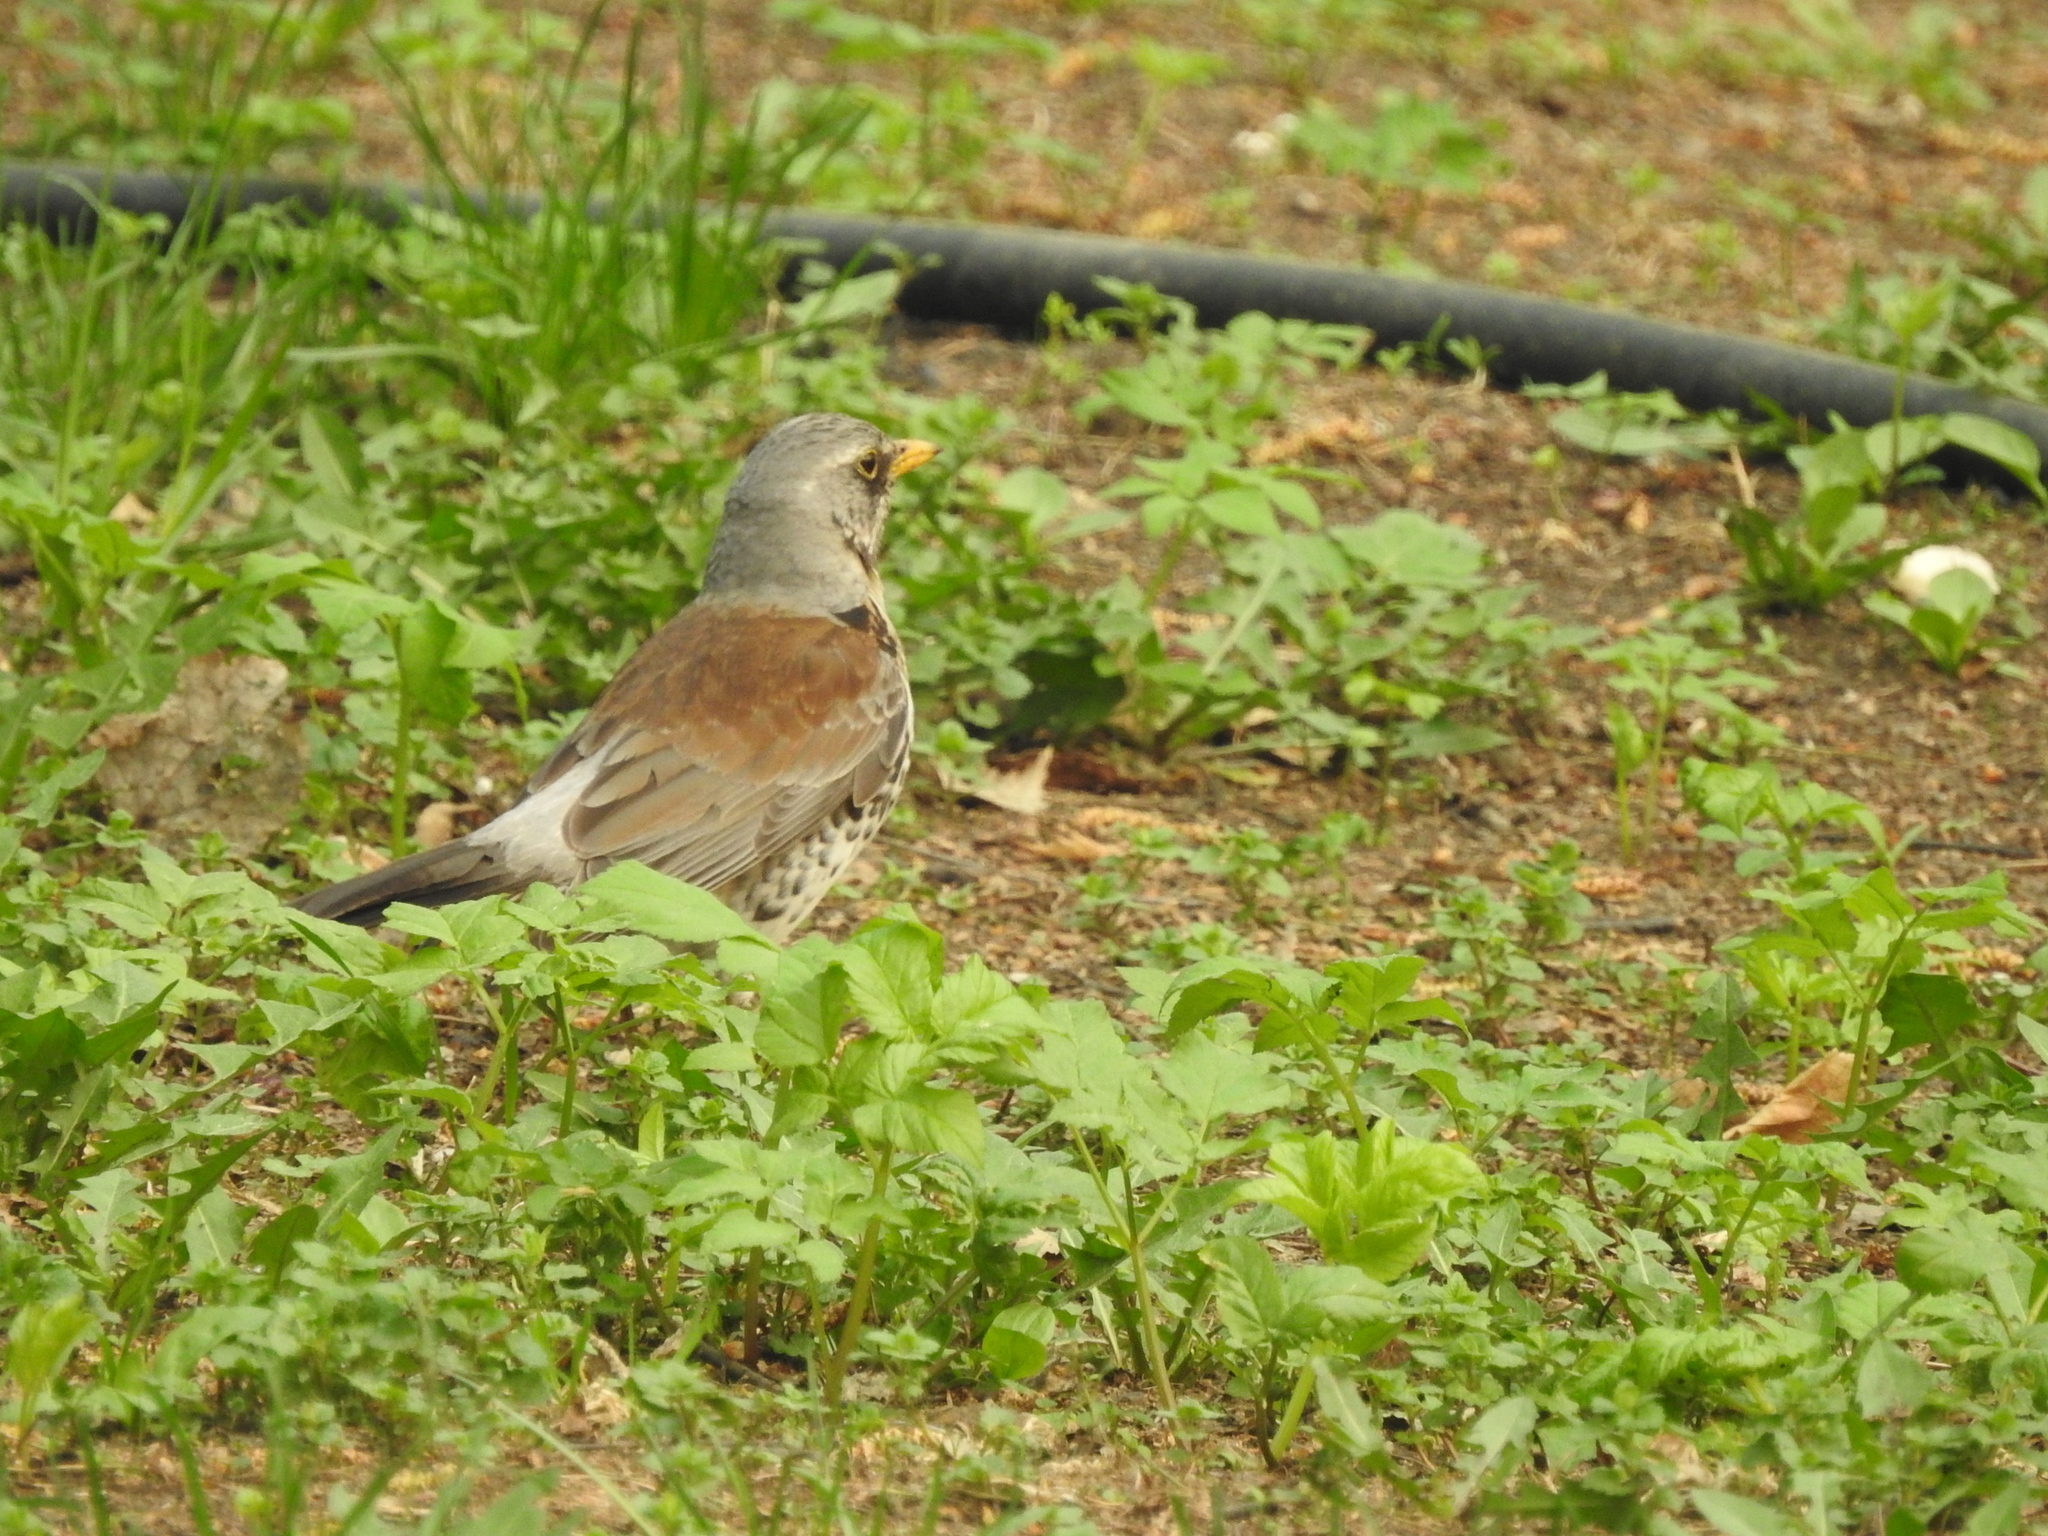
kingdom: Animalia
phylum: Chordata
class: Aves
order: Passeriformes
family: Turdidae
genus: Turdus
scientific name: Turdus pilaris
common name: Fieldfare
